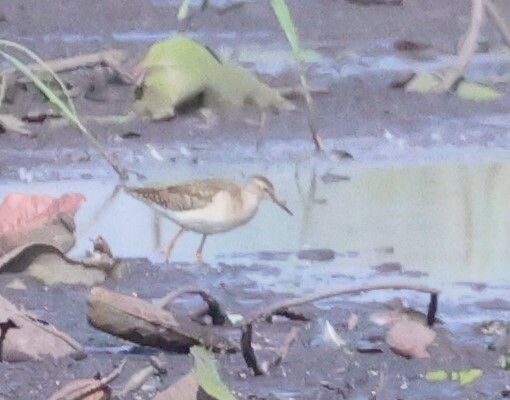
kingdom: Animalia
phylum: Chordata
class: Aves
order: Charadriiformes
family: Scolopacidae
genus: Tringa
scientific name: Tringa glareola
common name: Wood sandpiper
